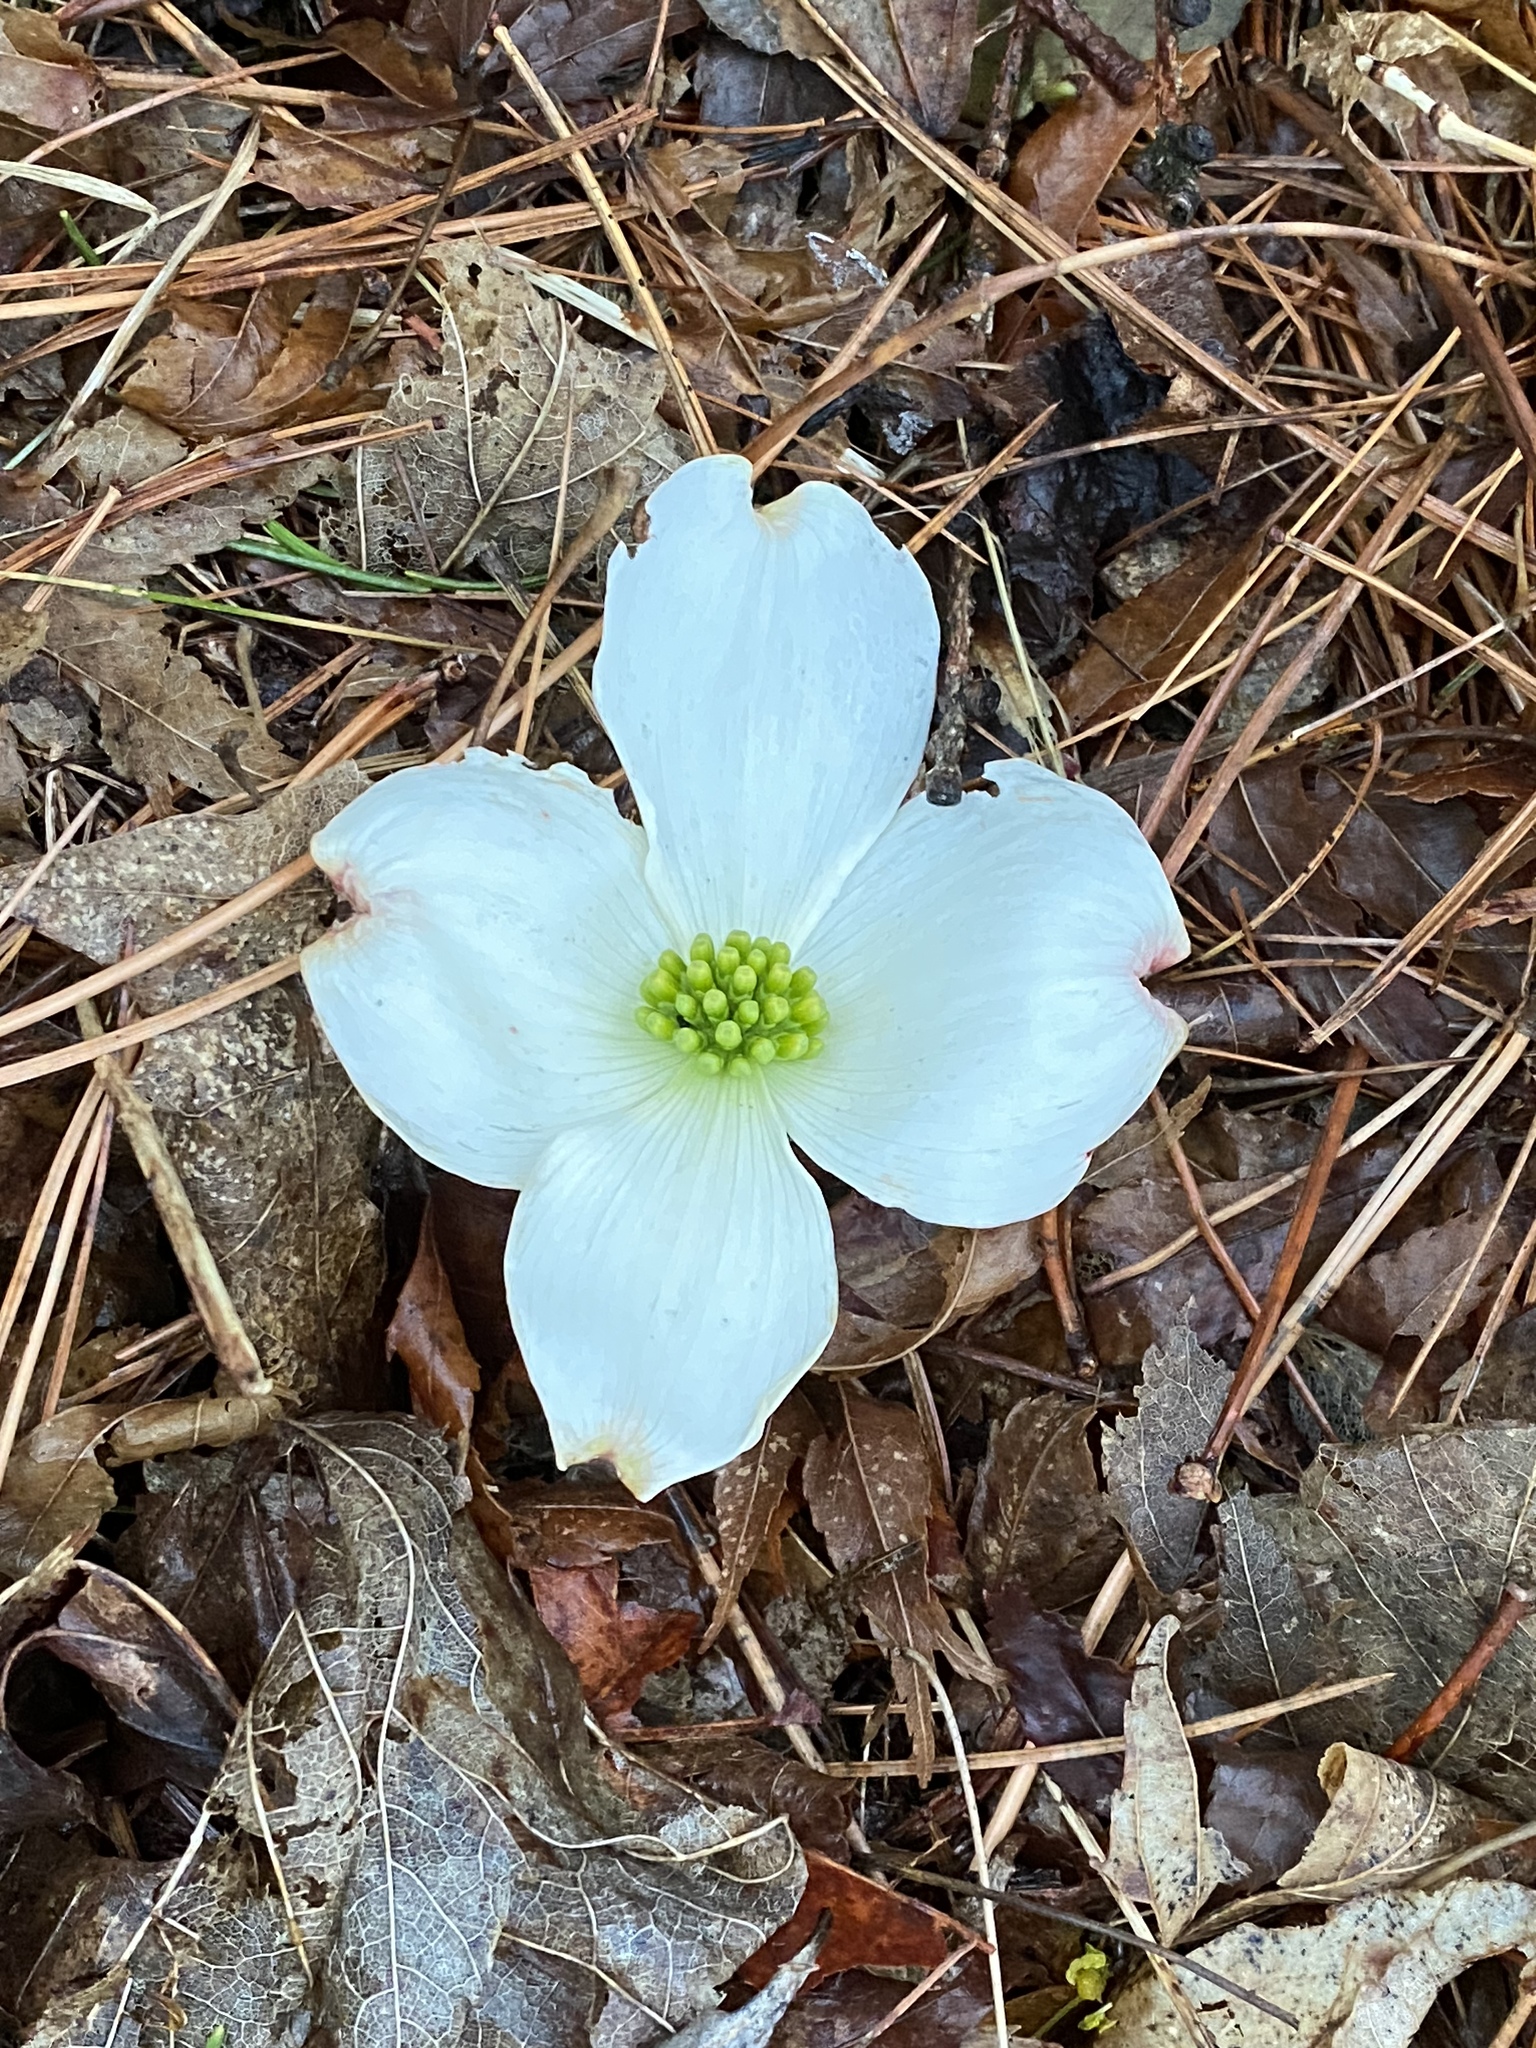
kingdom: Plantae
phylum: Tracheophyta
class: Magnoliopsida
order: Cornales
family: Cornaceae
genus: Cornus
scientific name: Cornus florida
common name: Flowering dogwood
